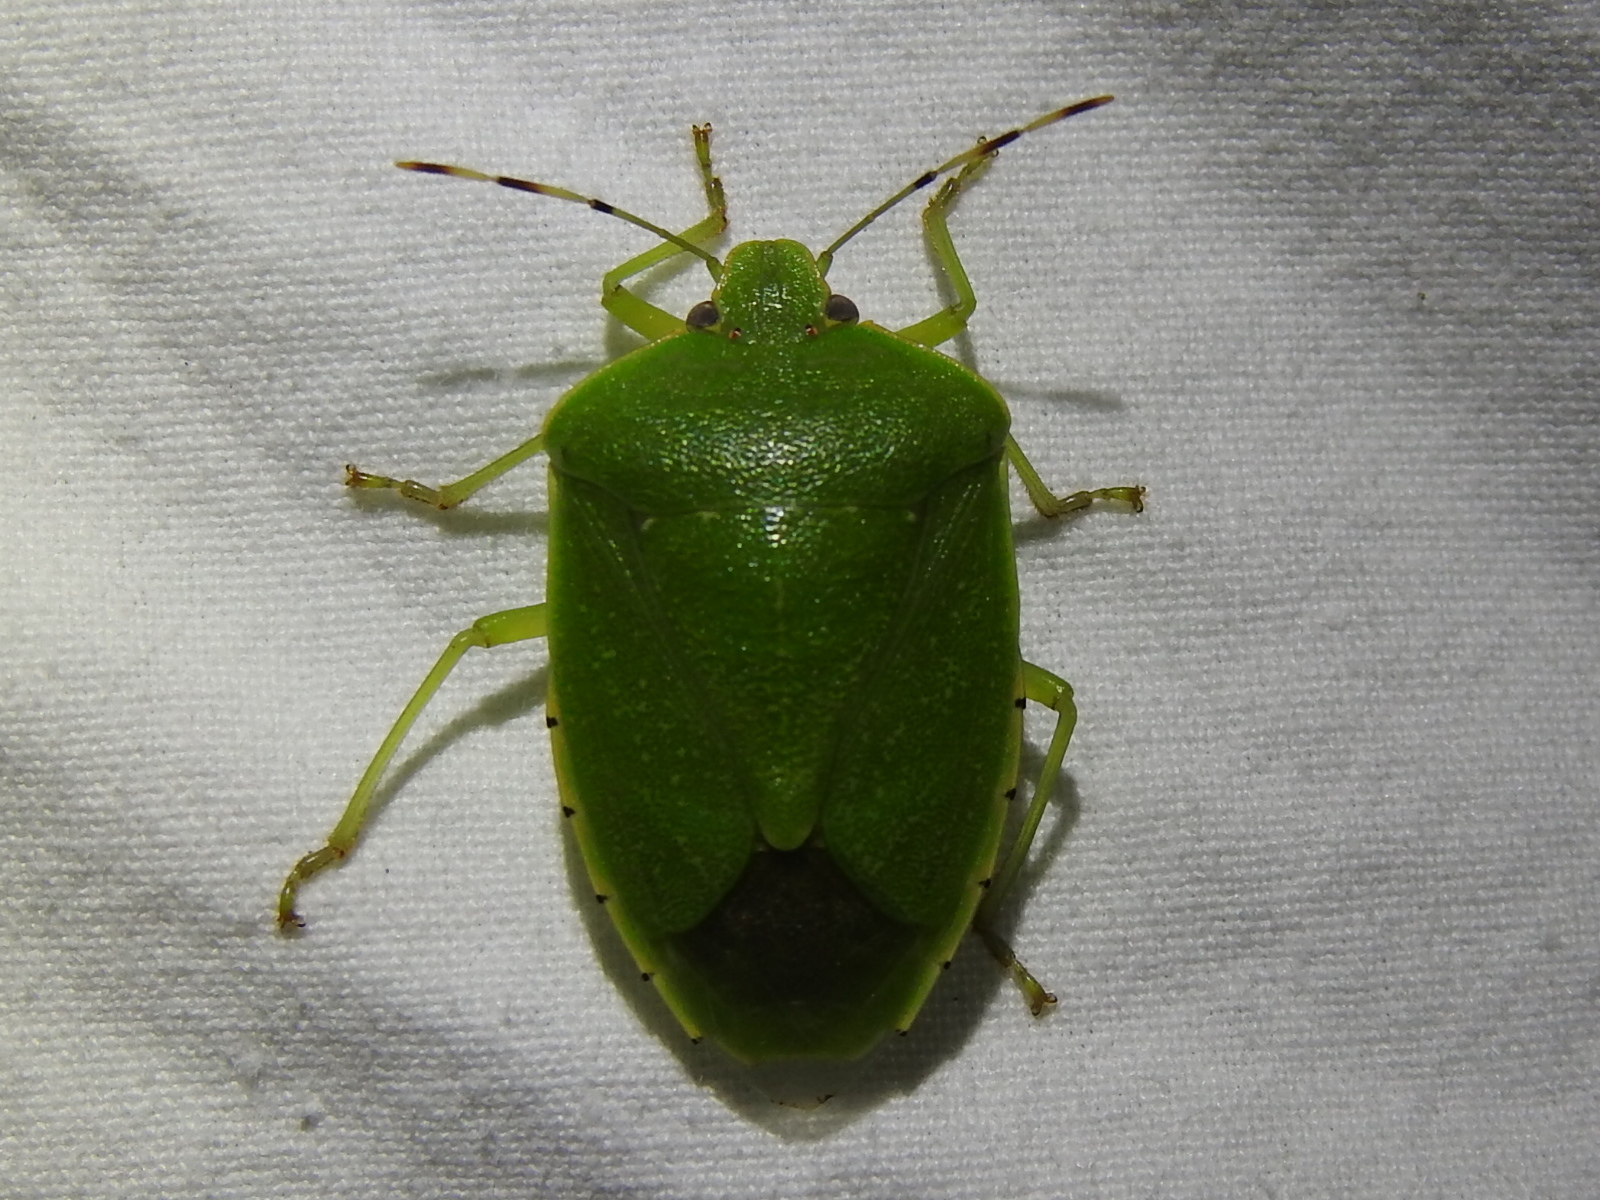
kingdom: Animalia
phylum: Arthropoda
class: Insecta
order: Hemiptera
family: Pentatomidae
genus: Chinavia
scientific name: Chinavia hilaris
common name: Green stink bug
